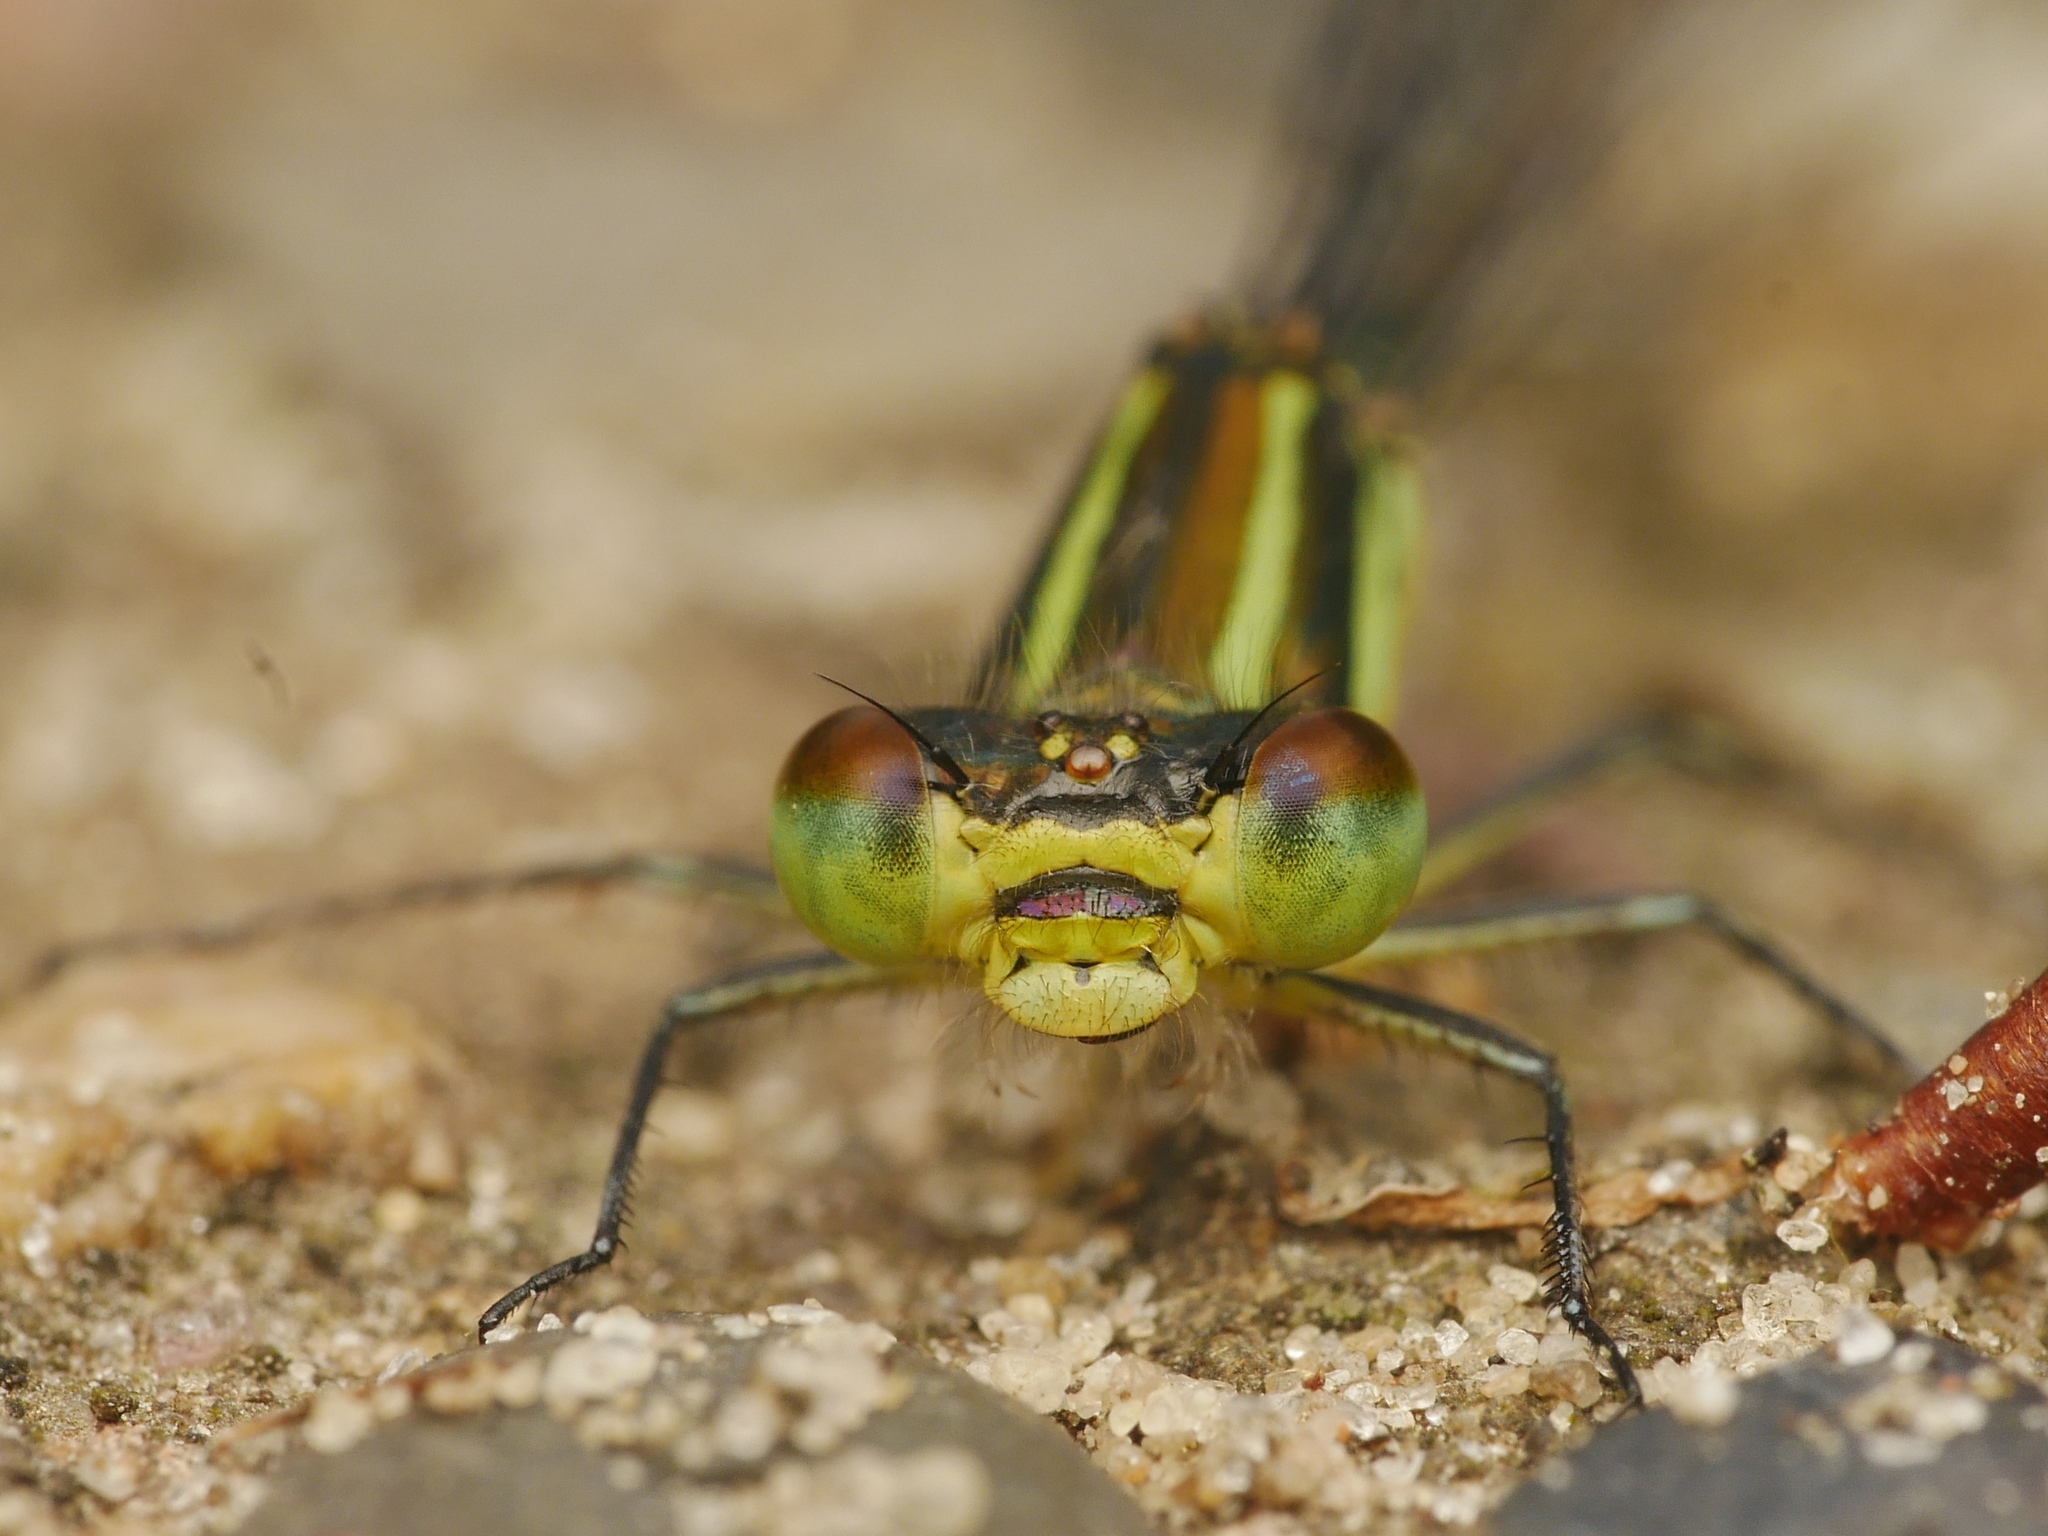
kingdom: Animalia
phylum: Arthropoda
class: Insecta
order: Odonata
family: Coenagrionidae
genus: Erythromma
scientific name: Erythromma viridulum
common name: Small red-eyed damselfly
